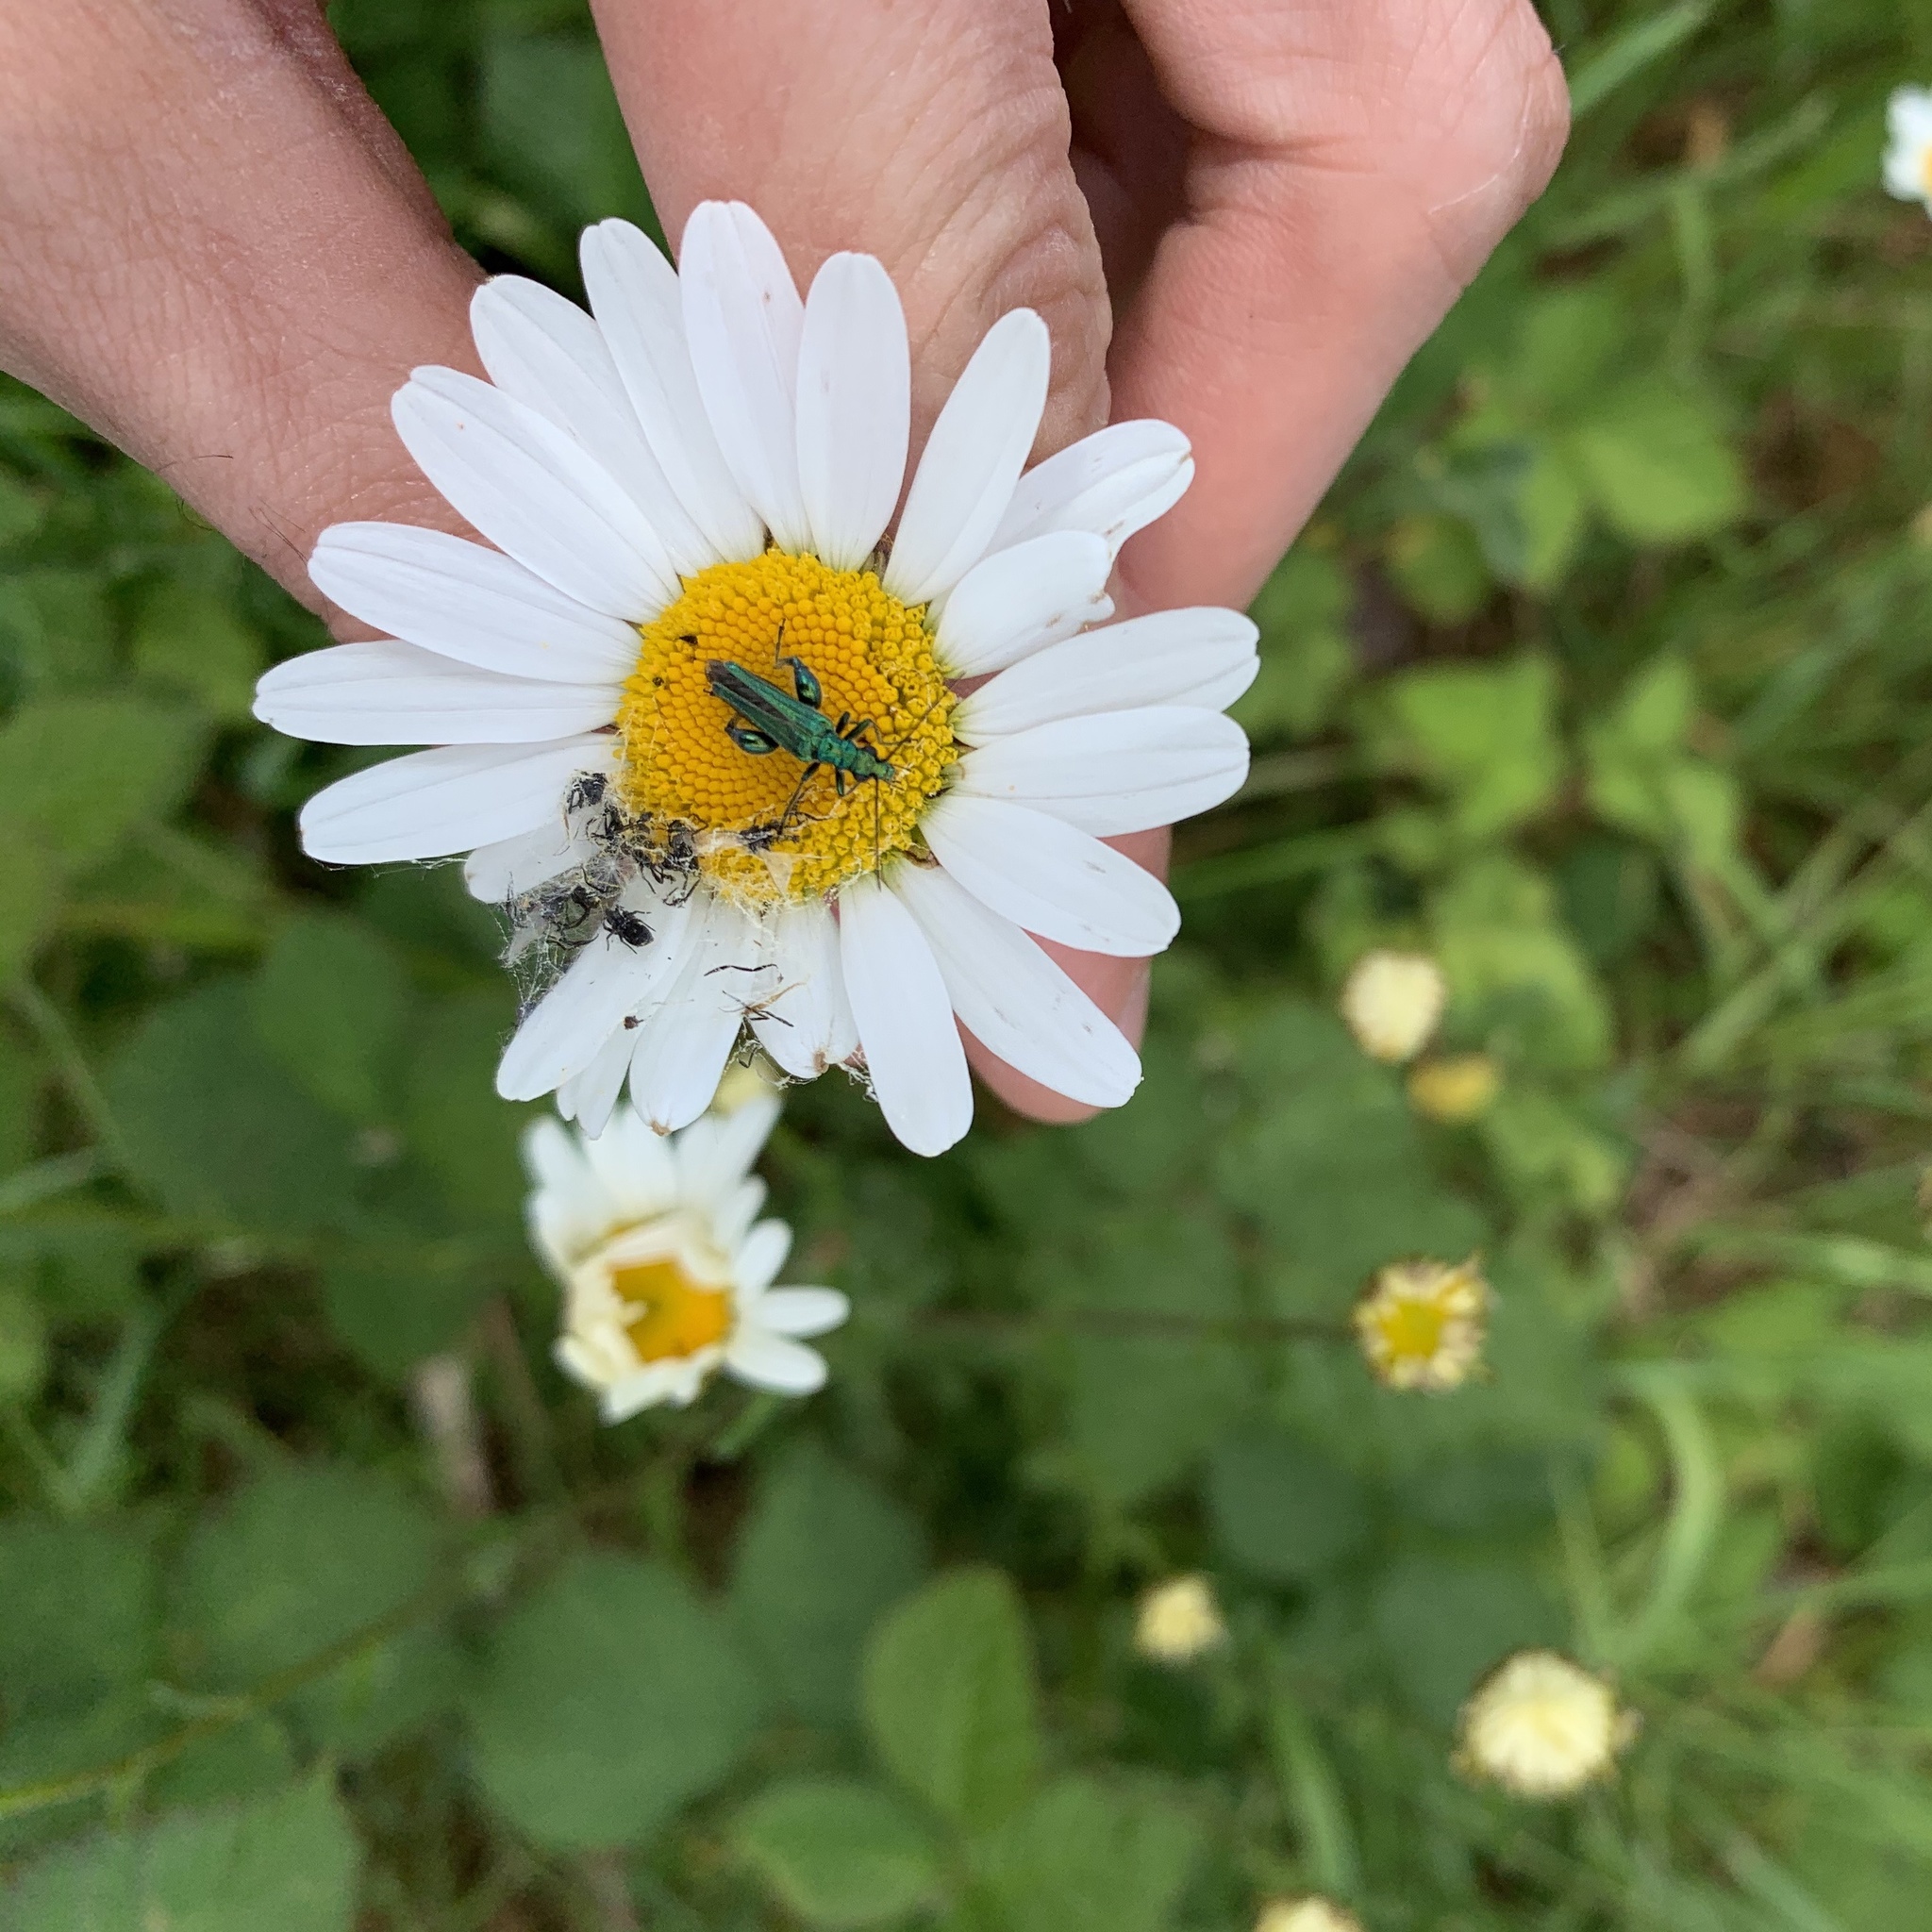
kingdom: Animalia
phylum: Arthropoda
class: Insecta
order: Coleoptera
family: Oedemeridae
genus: Oedemera
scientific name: Oedemera nobilis
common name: Swollen-thighed beetle
